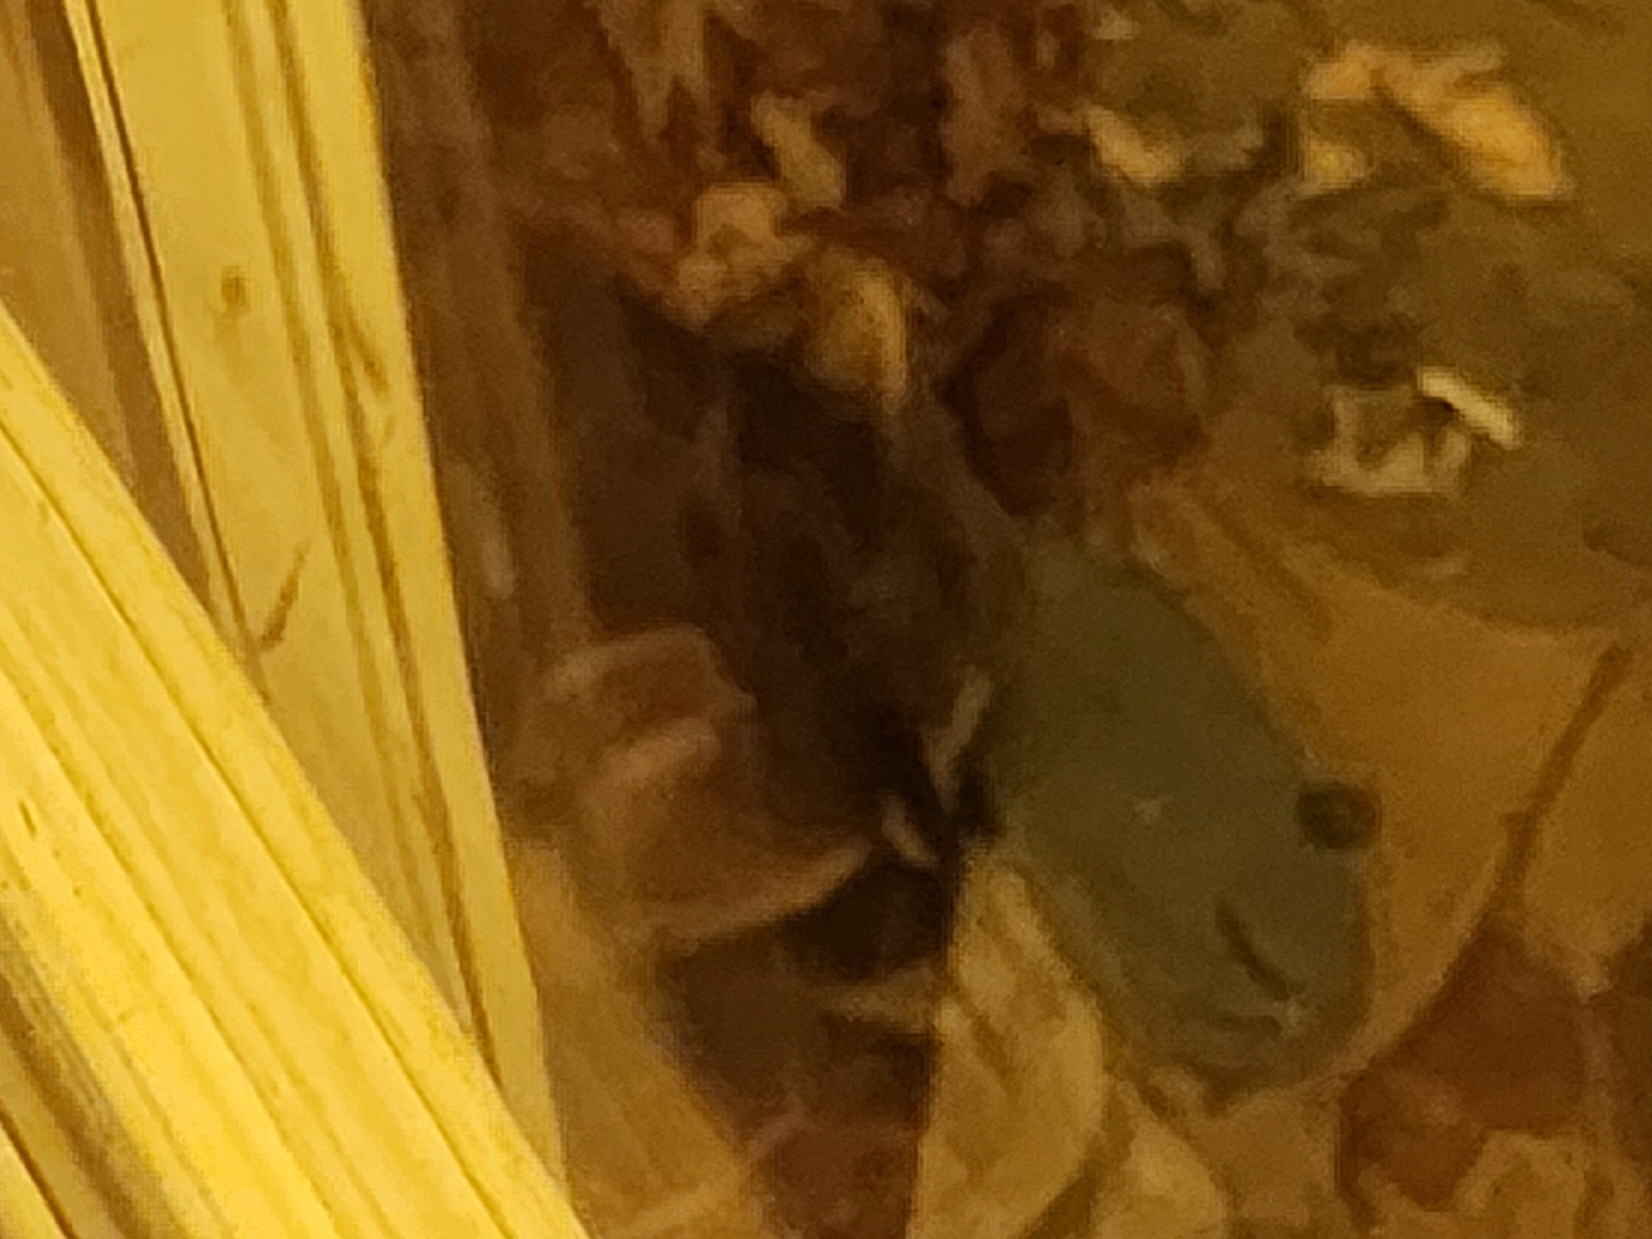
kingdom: Animalia
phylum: Chordata
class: Mammalia
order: Carnivora
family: Procyonidae
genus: Procyon
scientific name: Procyon lotor
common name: Raccoon
